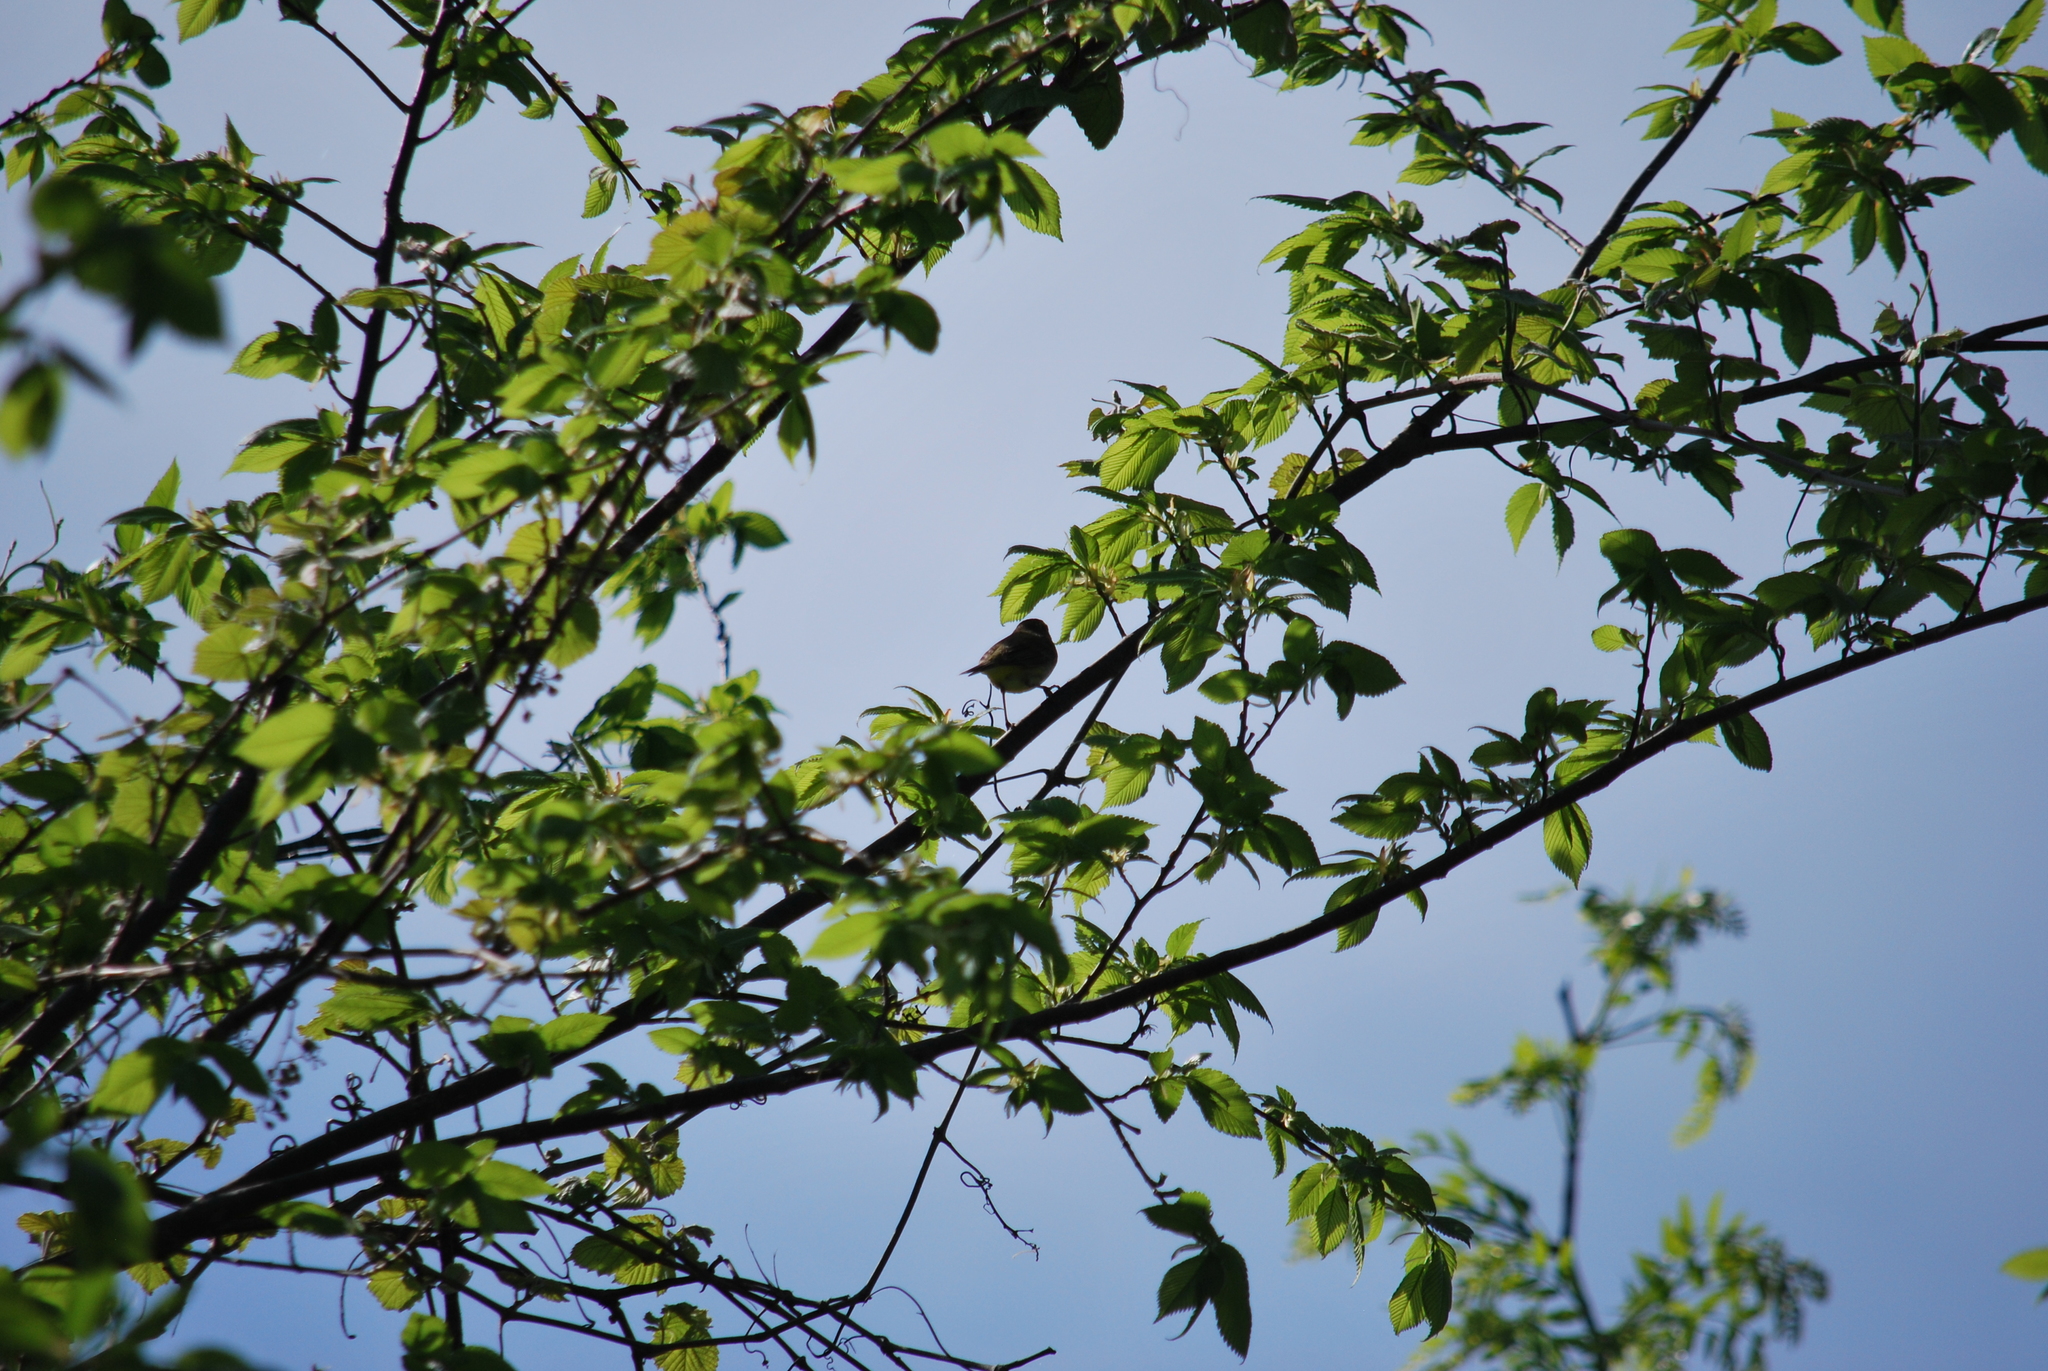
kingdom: Animalia
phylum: Chordata
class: Aves
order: Passeriformes
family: Parulidae
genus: Setophaga
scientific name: Setophaga palmarum
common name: Palm warbler
